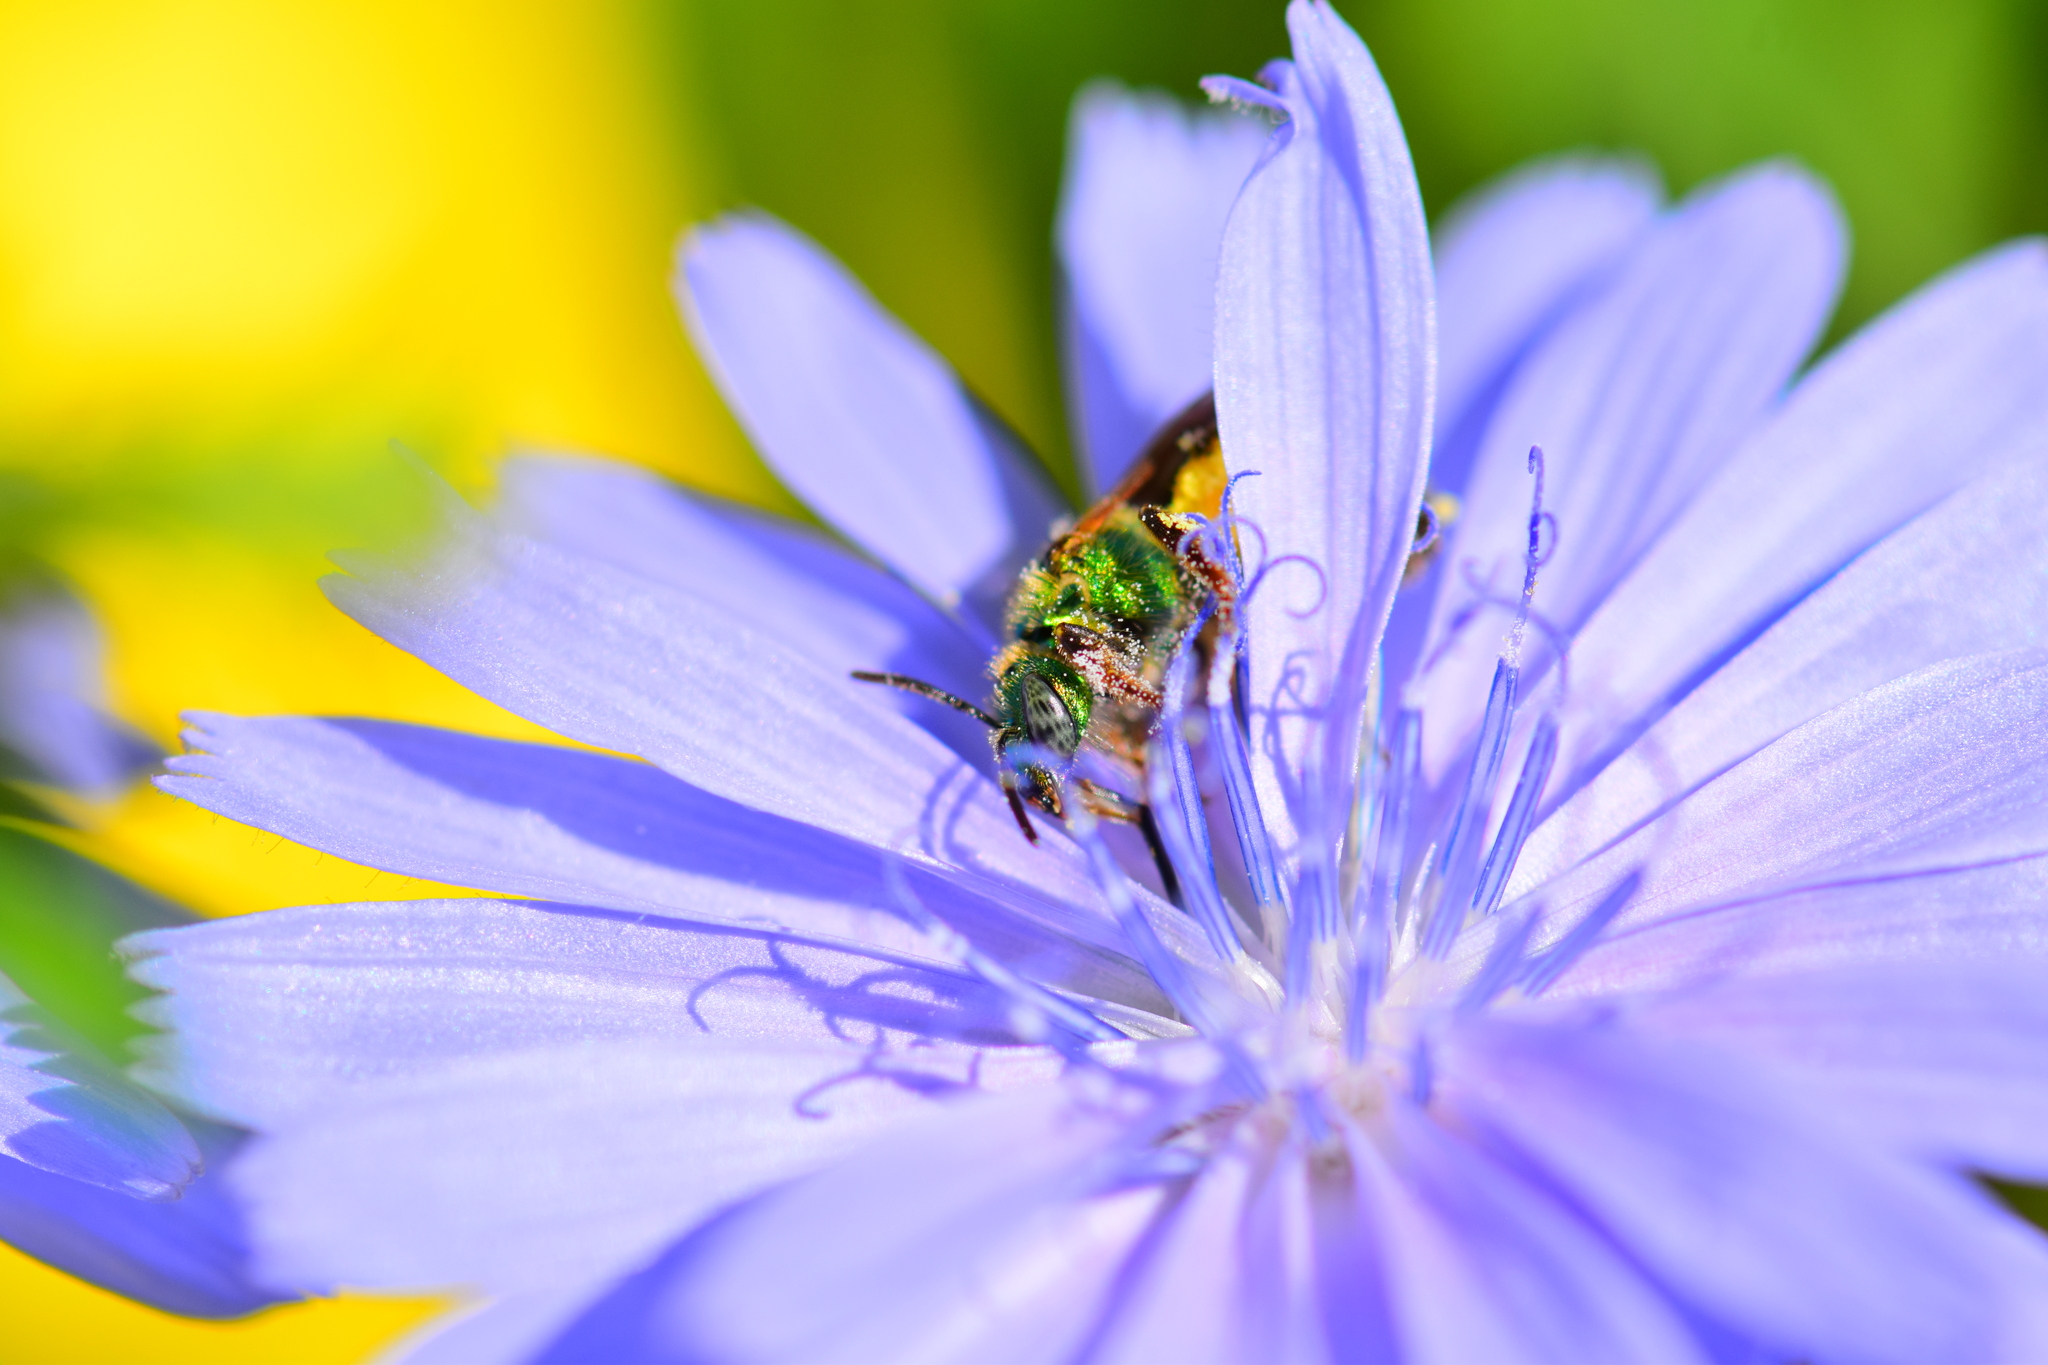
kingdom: Animalia
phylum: Arthropoda
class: Insecta
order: Hymenoptera
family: Halictidae
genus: Agapostemon
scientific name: Agapostemon virescens
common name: Bicolored striped sweat bee
